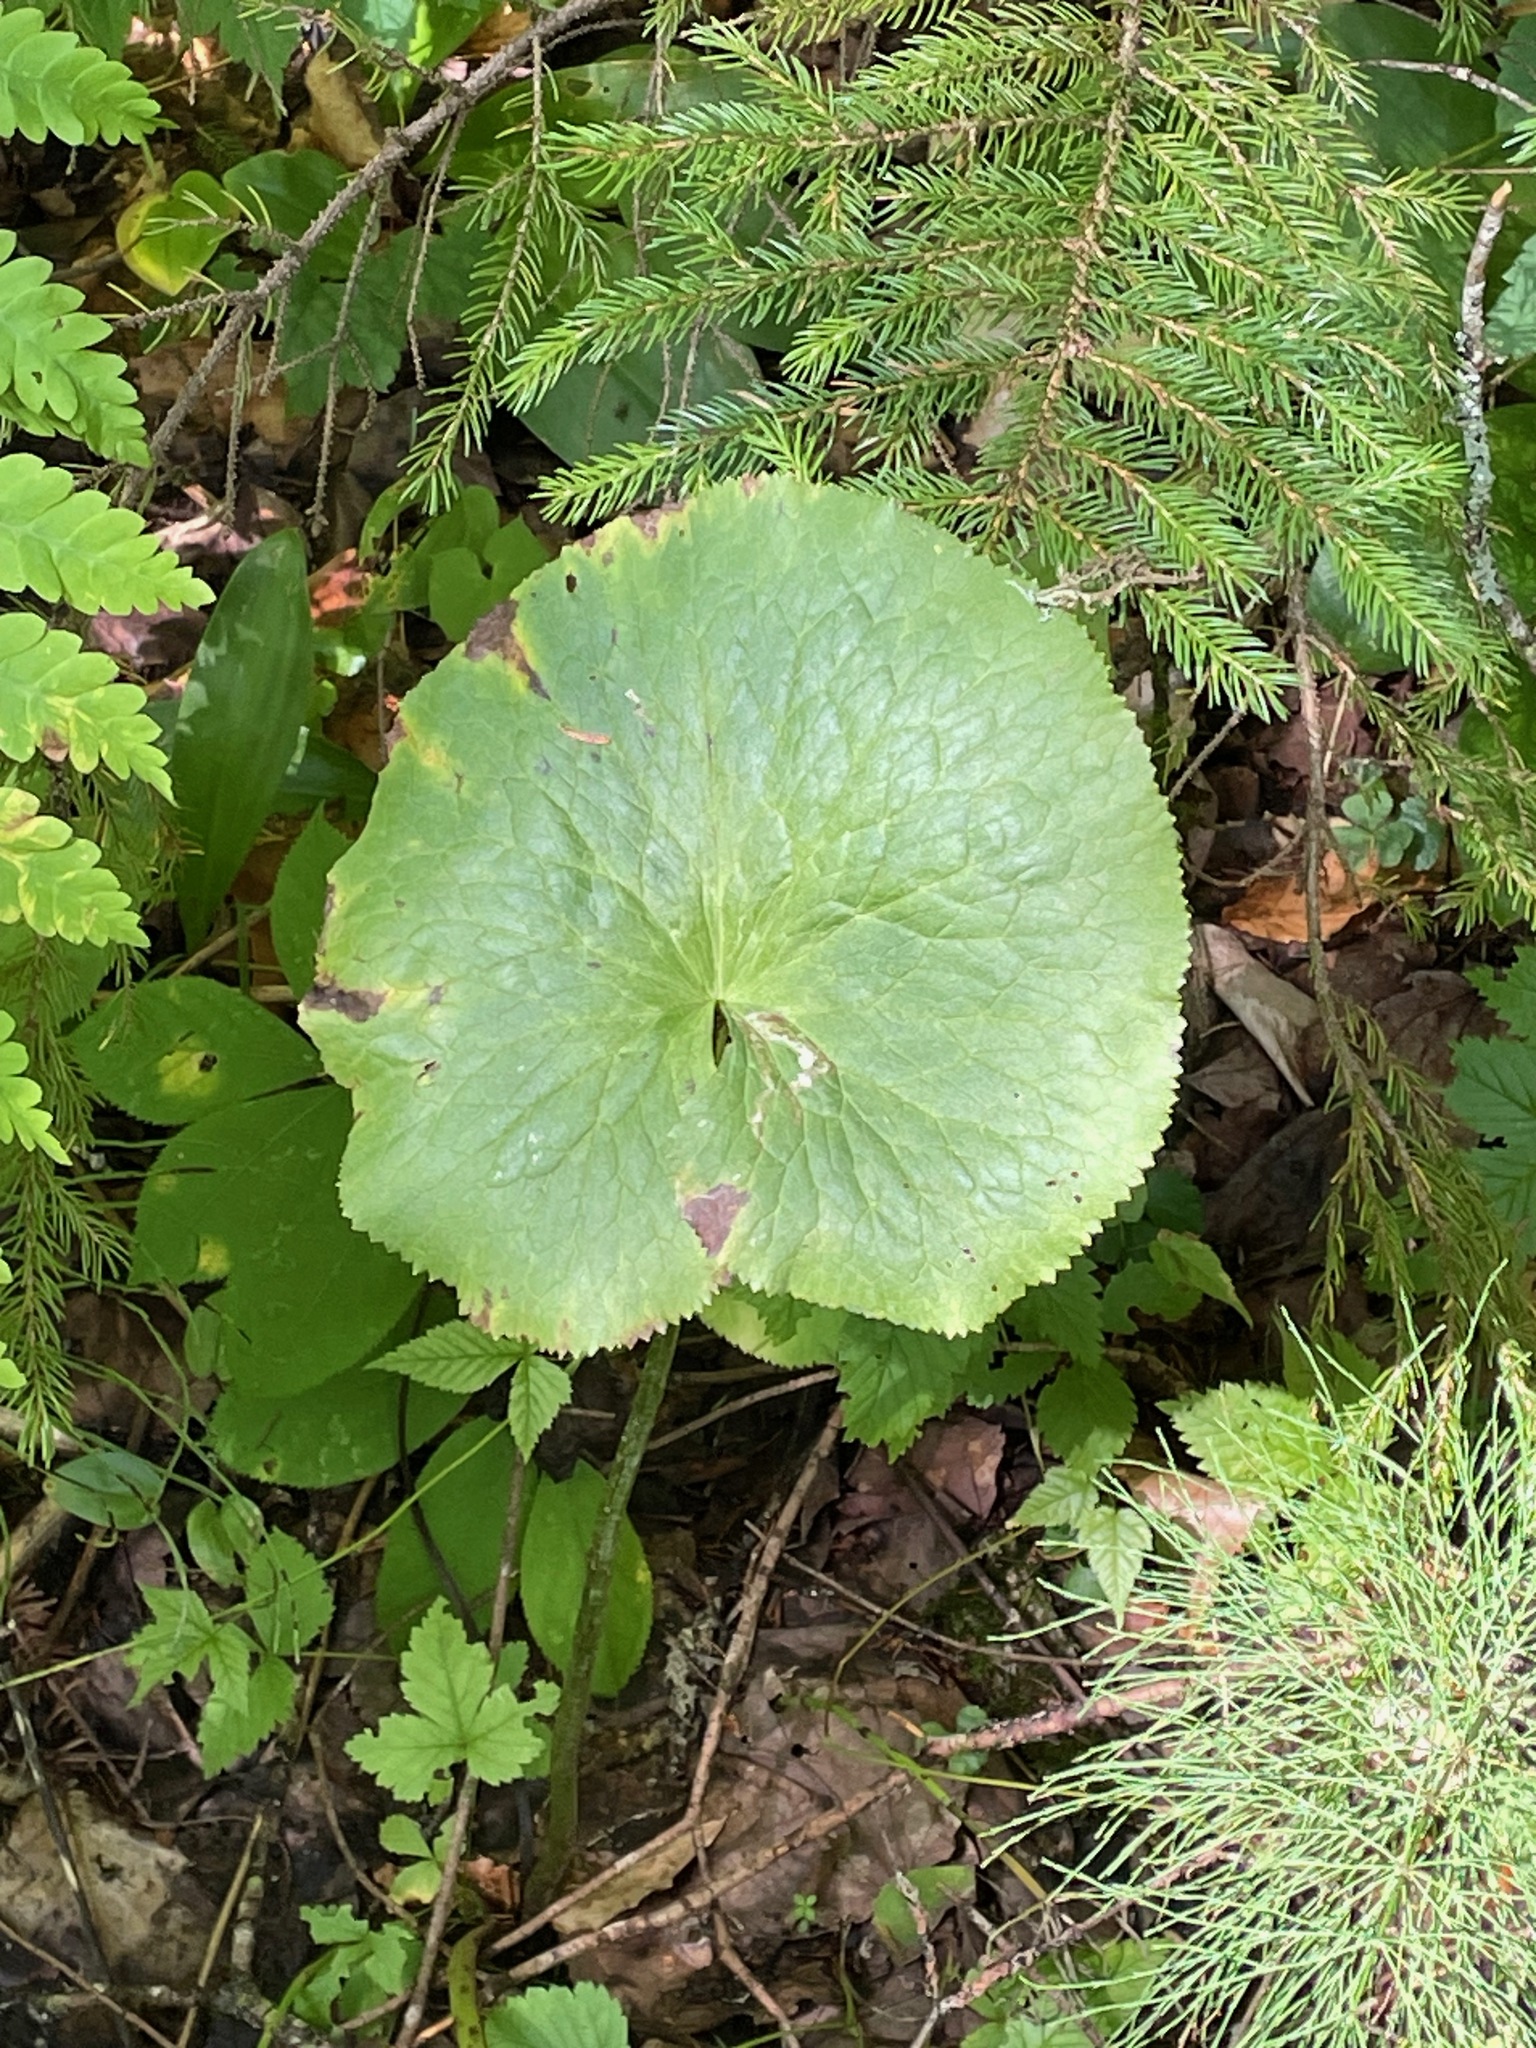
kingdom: Plantae
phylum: Tracheophyta
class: Magnoliopsida
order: Ranunculales
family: Ranunculaceae
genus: Caltha
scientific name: Caltha palustris
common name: Marsh marigold
